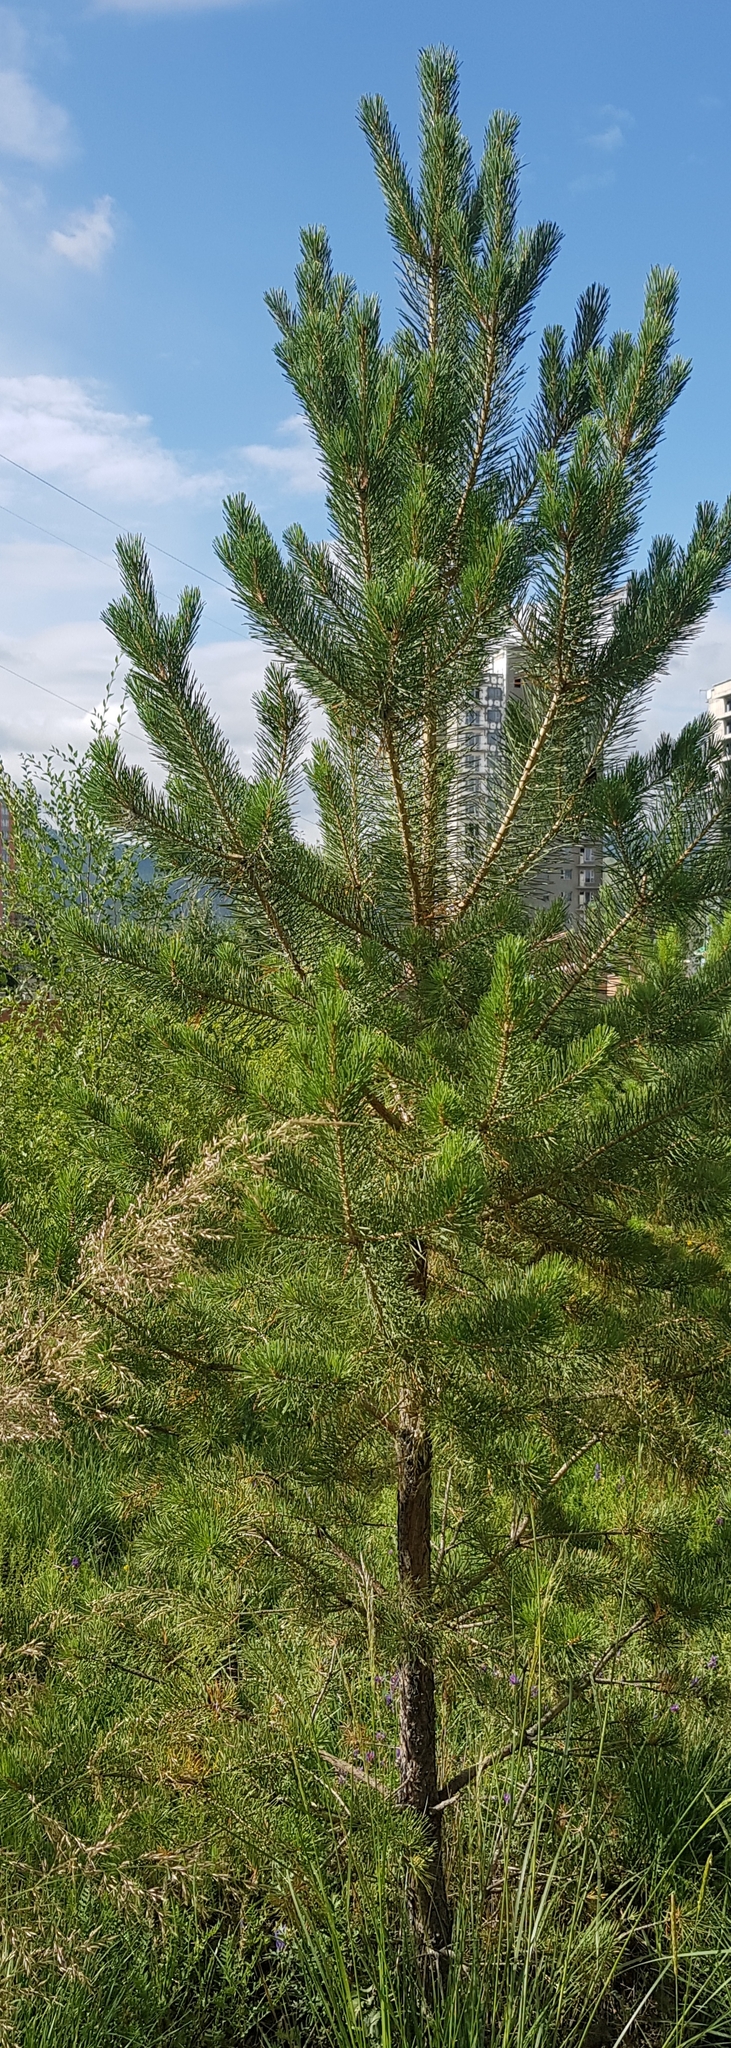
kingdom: Plantae
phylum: Tracheophyta
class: Pinopsida
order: Pinales
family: Pinaceae
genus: Pinus
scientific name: Pinus sylvestris
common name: Scots pine
